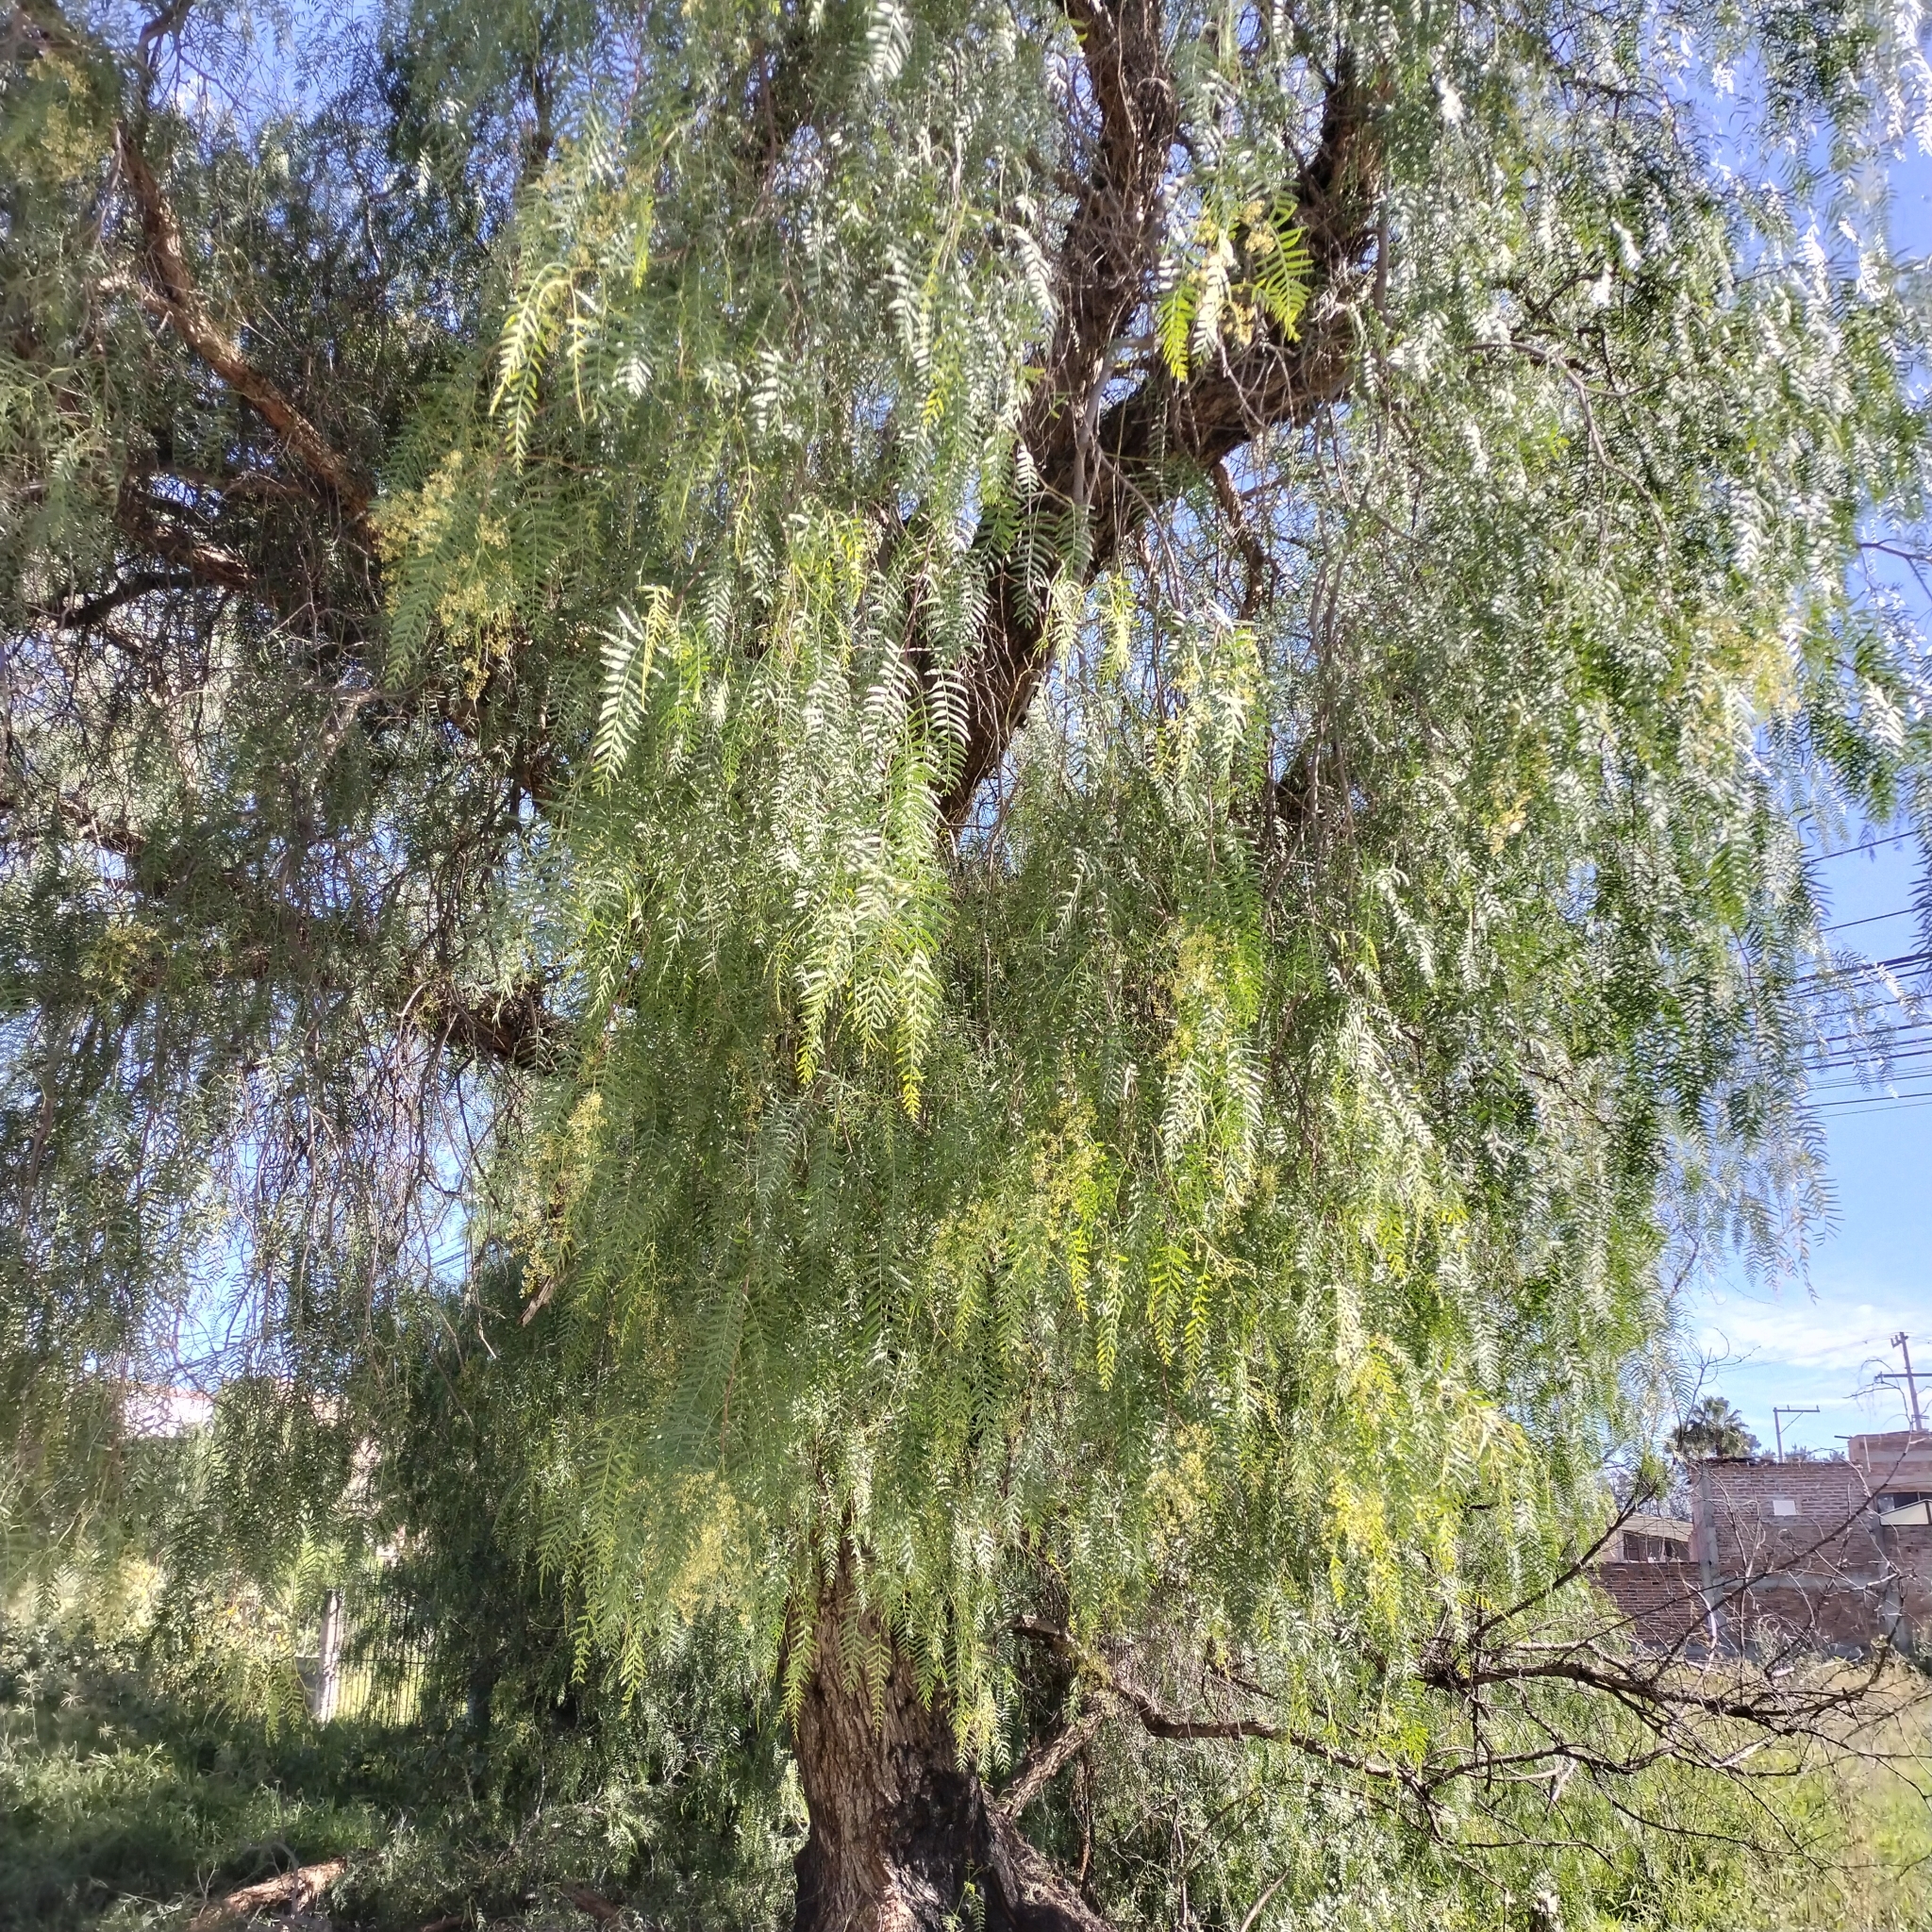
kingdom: Plantae
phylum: Tracheophyta
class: Magnoliopsida
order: Sapindales
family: Anacardiaceae
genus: Schinus
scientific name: Schinus molle
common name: Peruvian peppertree
